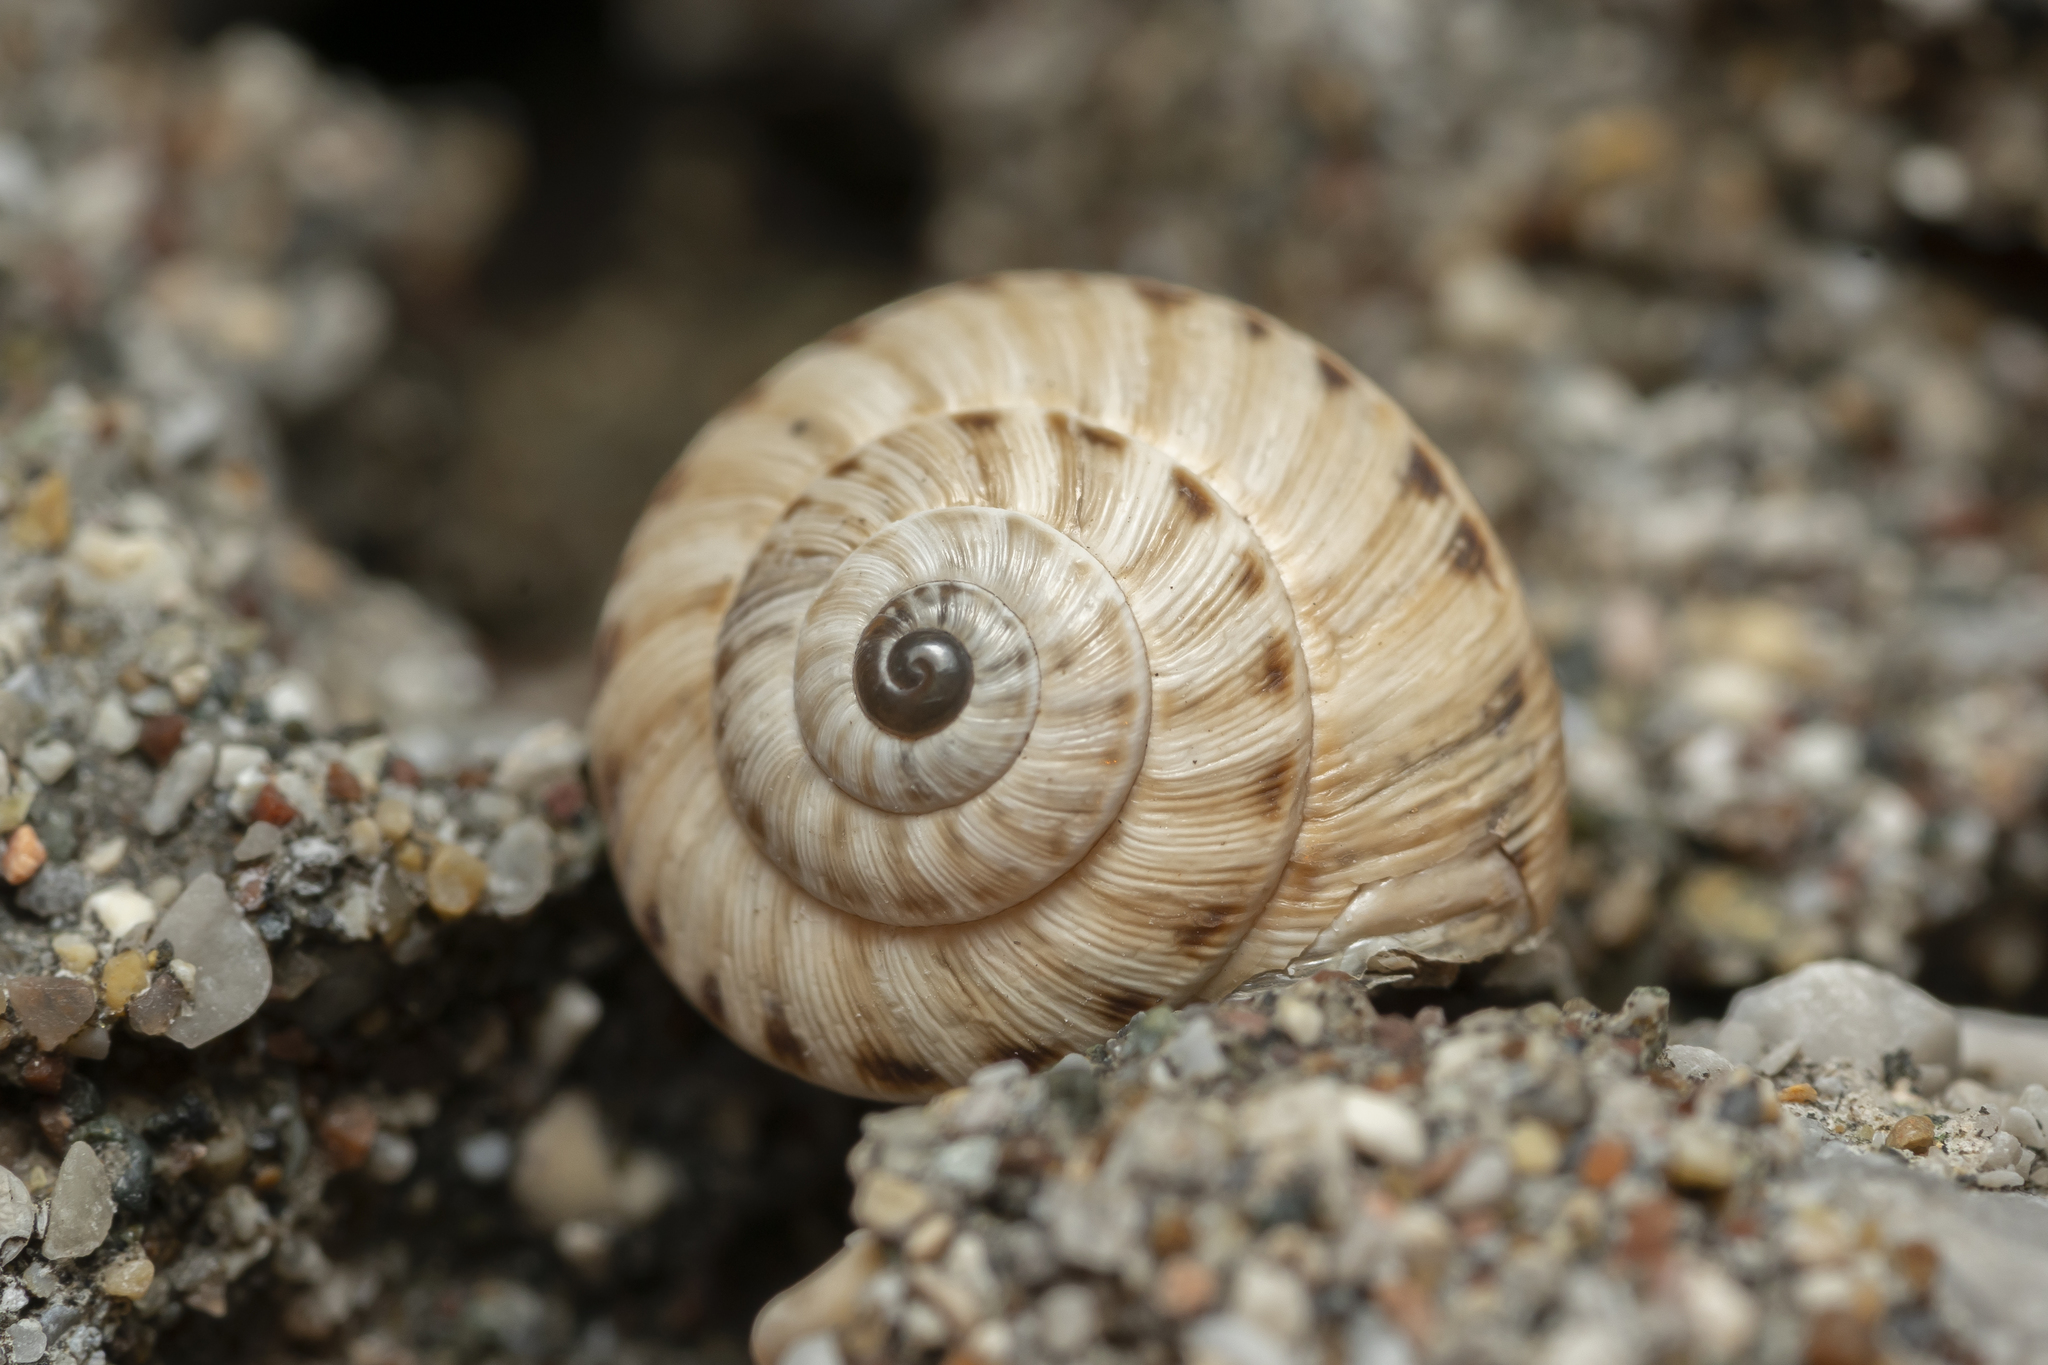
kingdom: Animalia
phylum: Mollusca
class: Gastropoda
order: Stylommatophora
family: Geomitridae
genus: Cernuella
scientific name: Cernuella virgata
